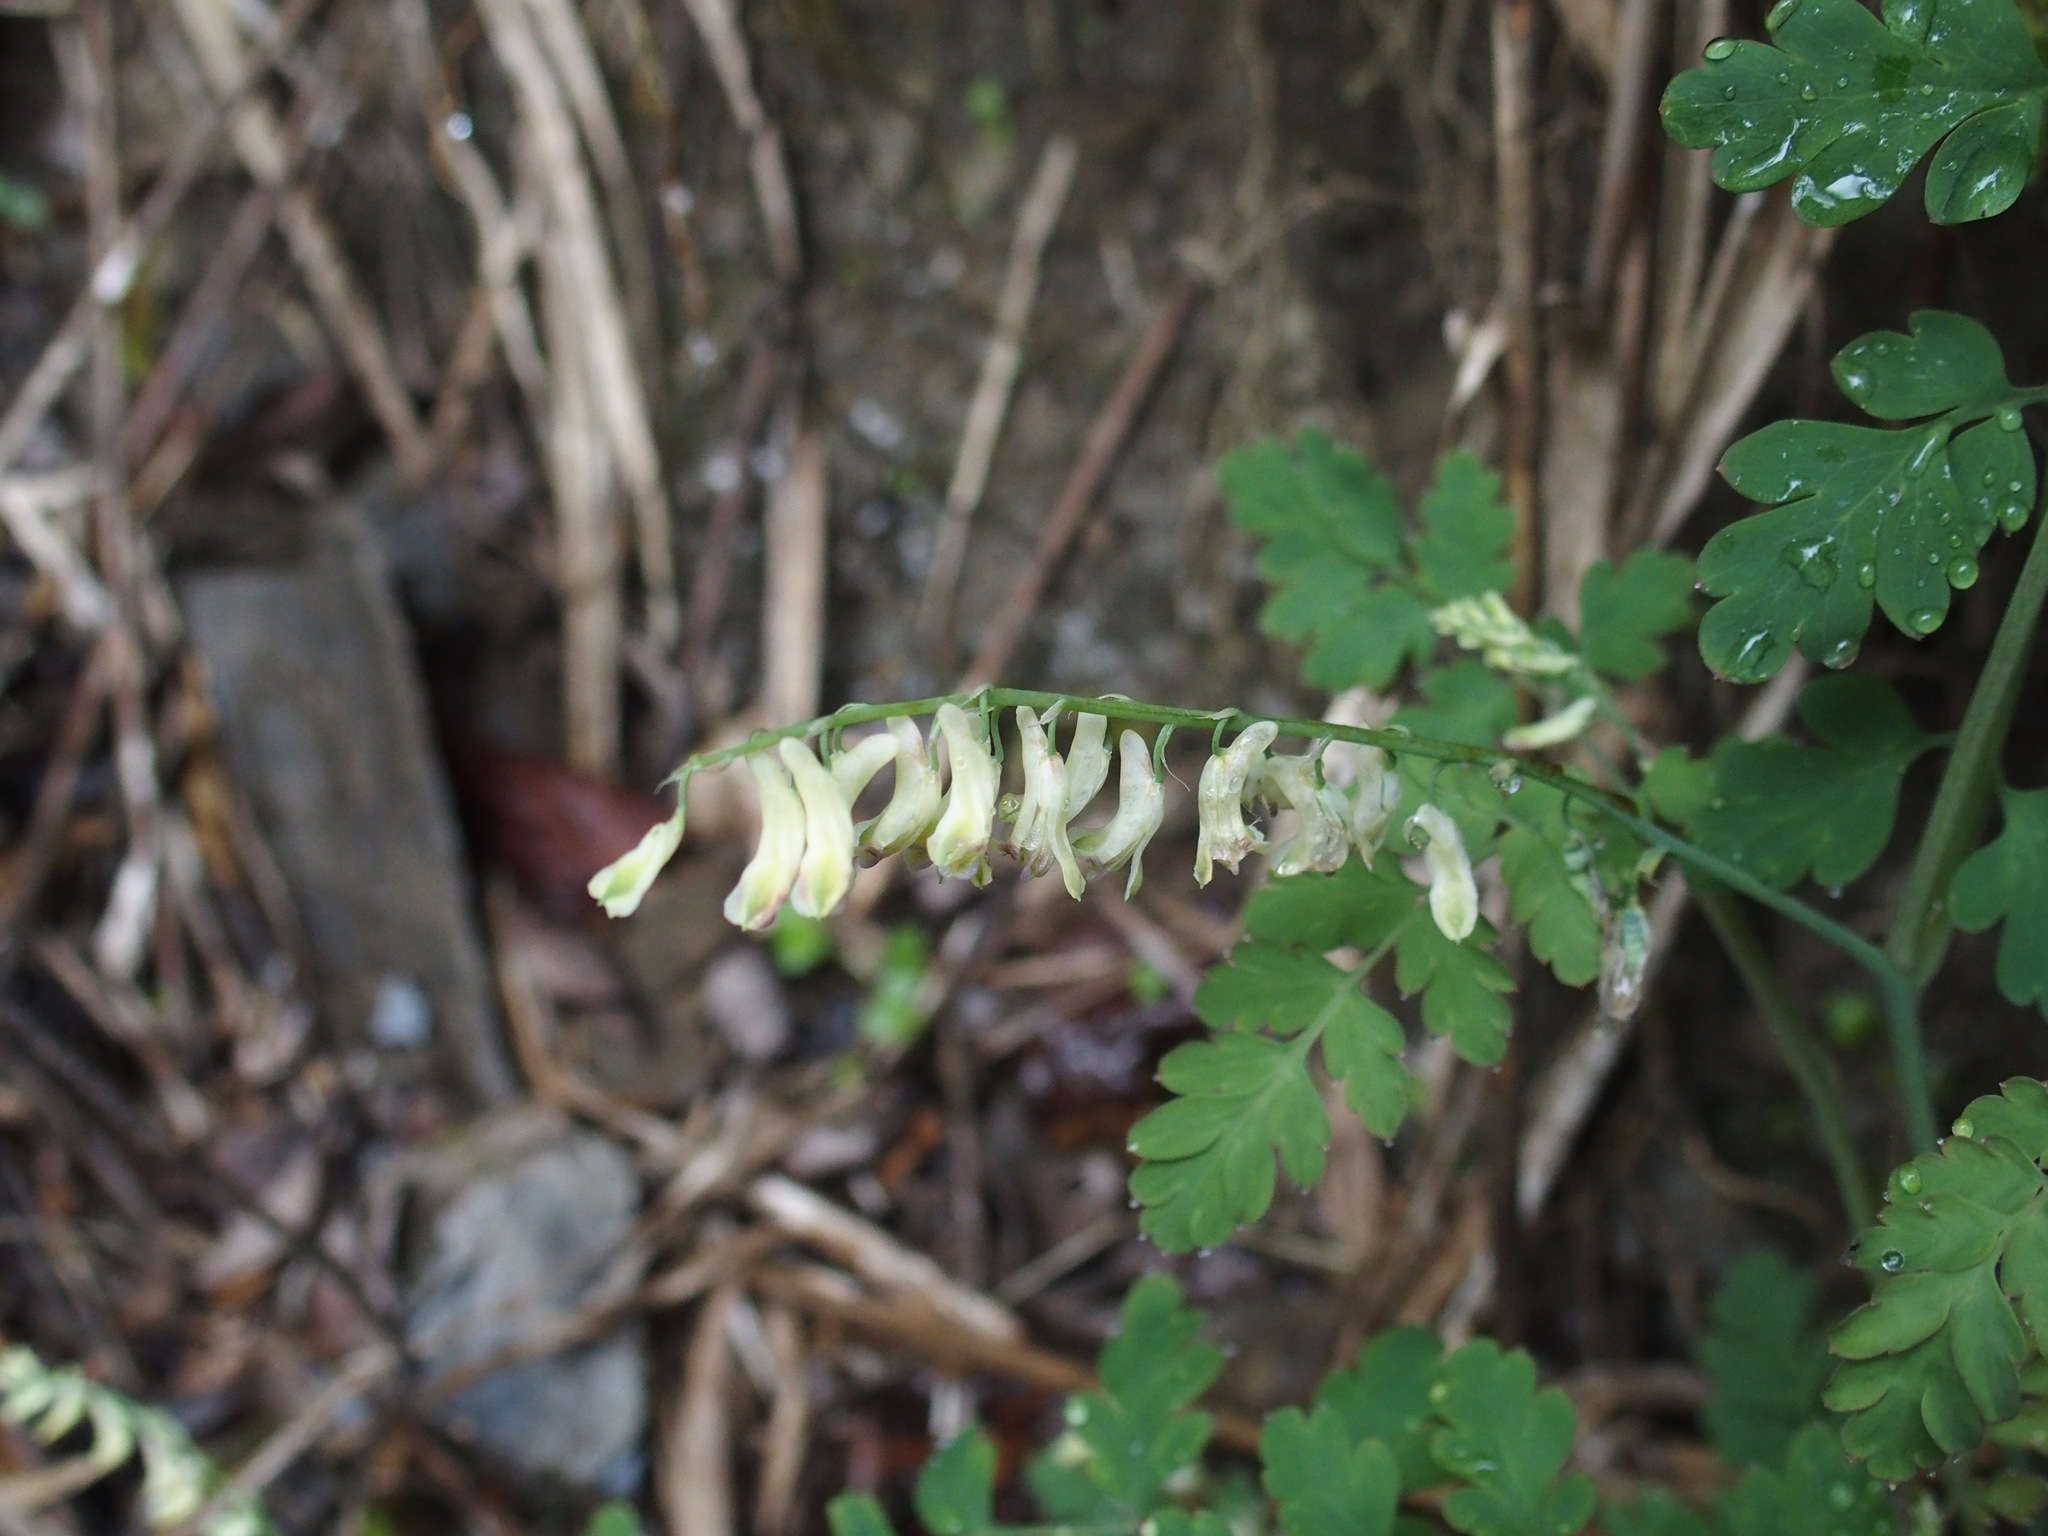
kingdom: Plantae
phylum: Tracheophyta
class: Magnoliopsida
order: Ranunculales
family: Papaveraceae
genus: Corydalis
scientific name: Corydalis ophiocarpa
